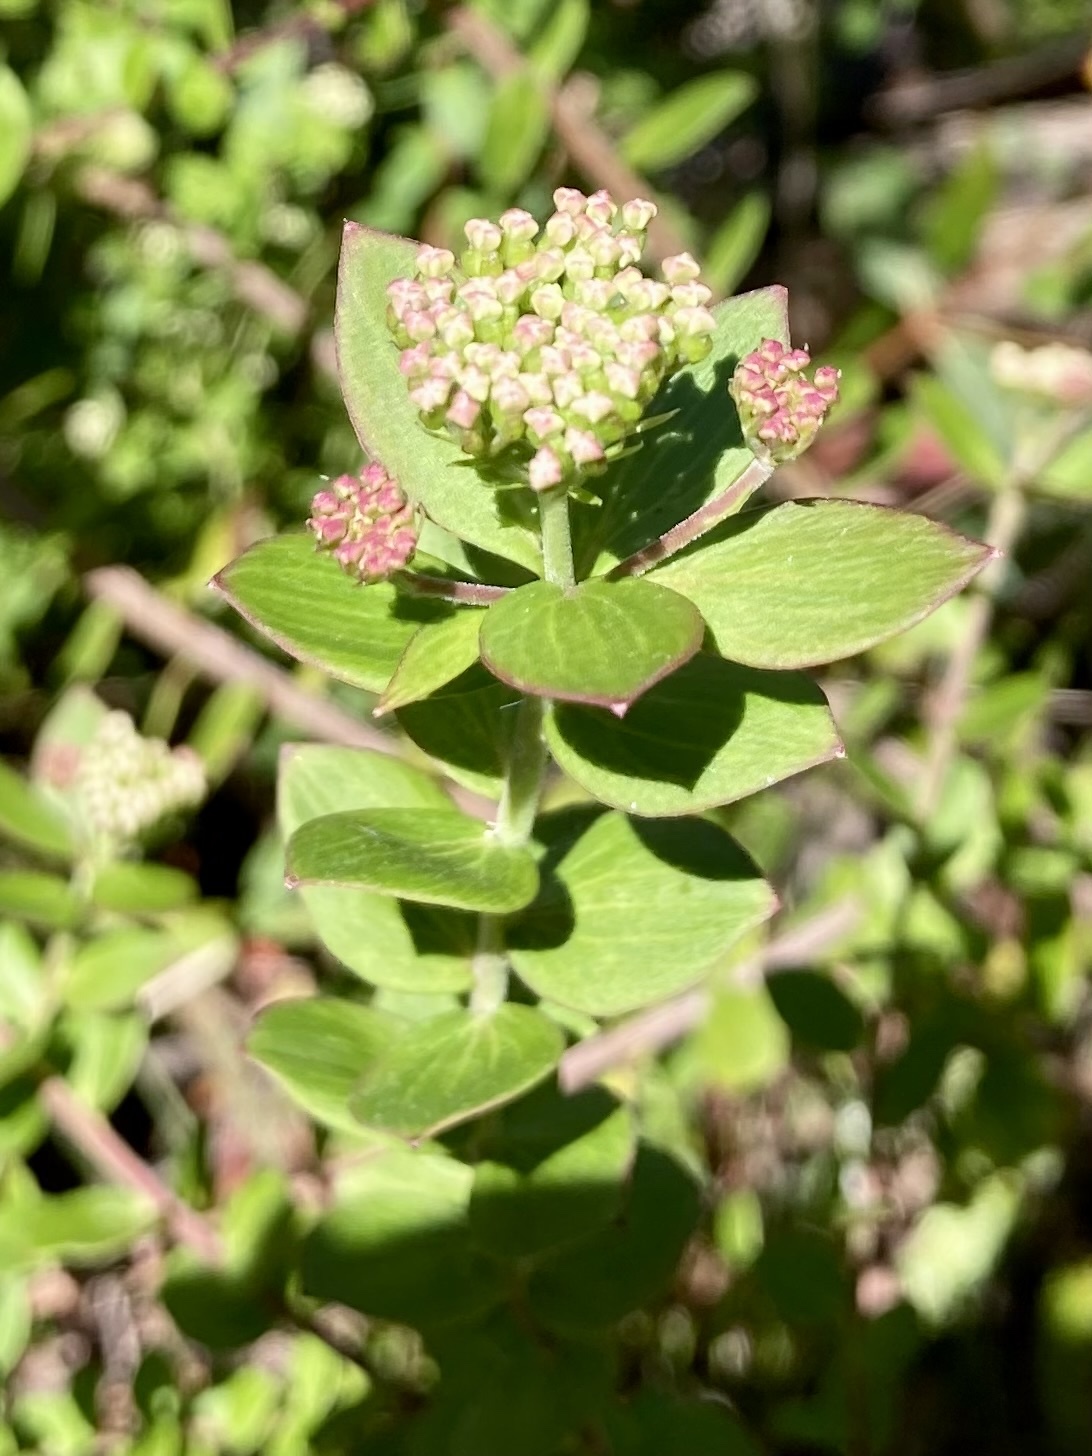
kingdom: Plantae
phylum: Tracheophyta
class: Magnoliopsida
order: Apiales
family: Apiaceae
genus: Platysace
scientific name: Platysace lanceolata
